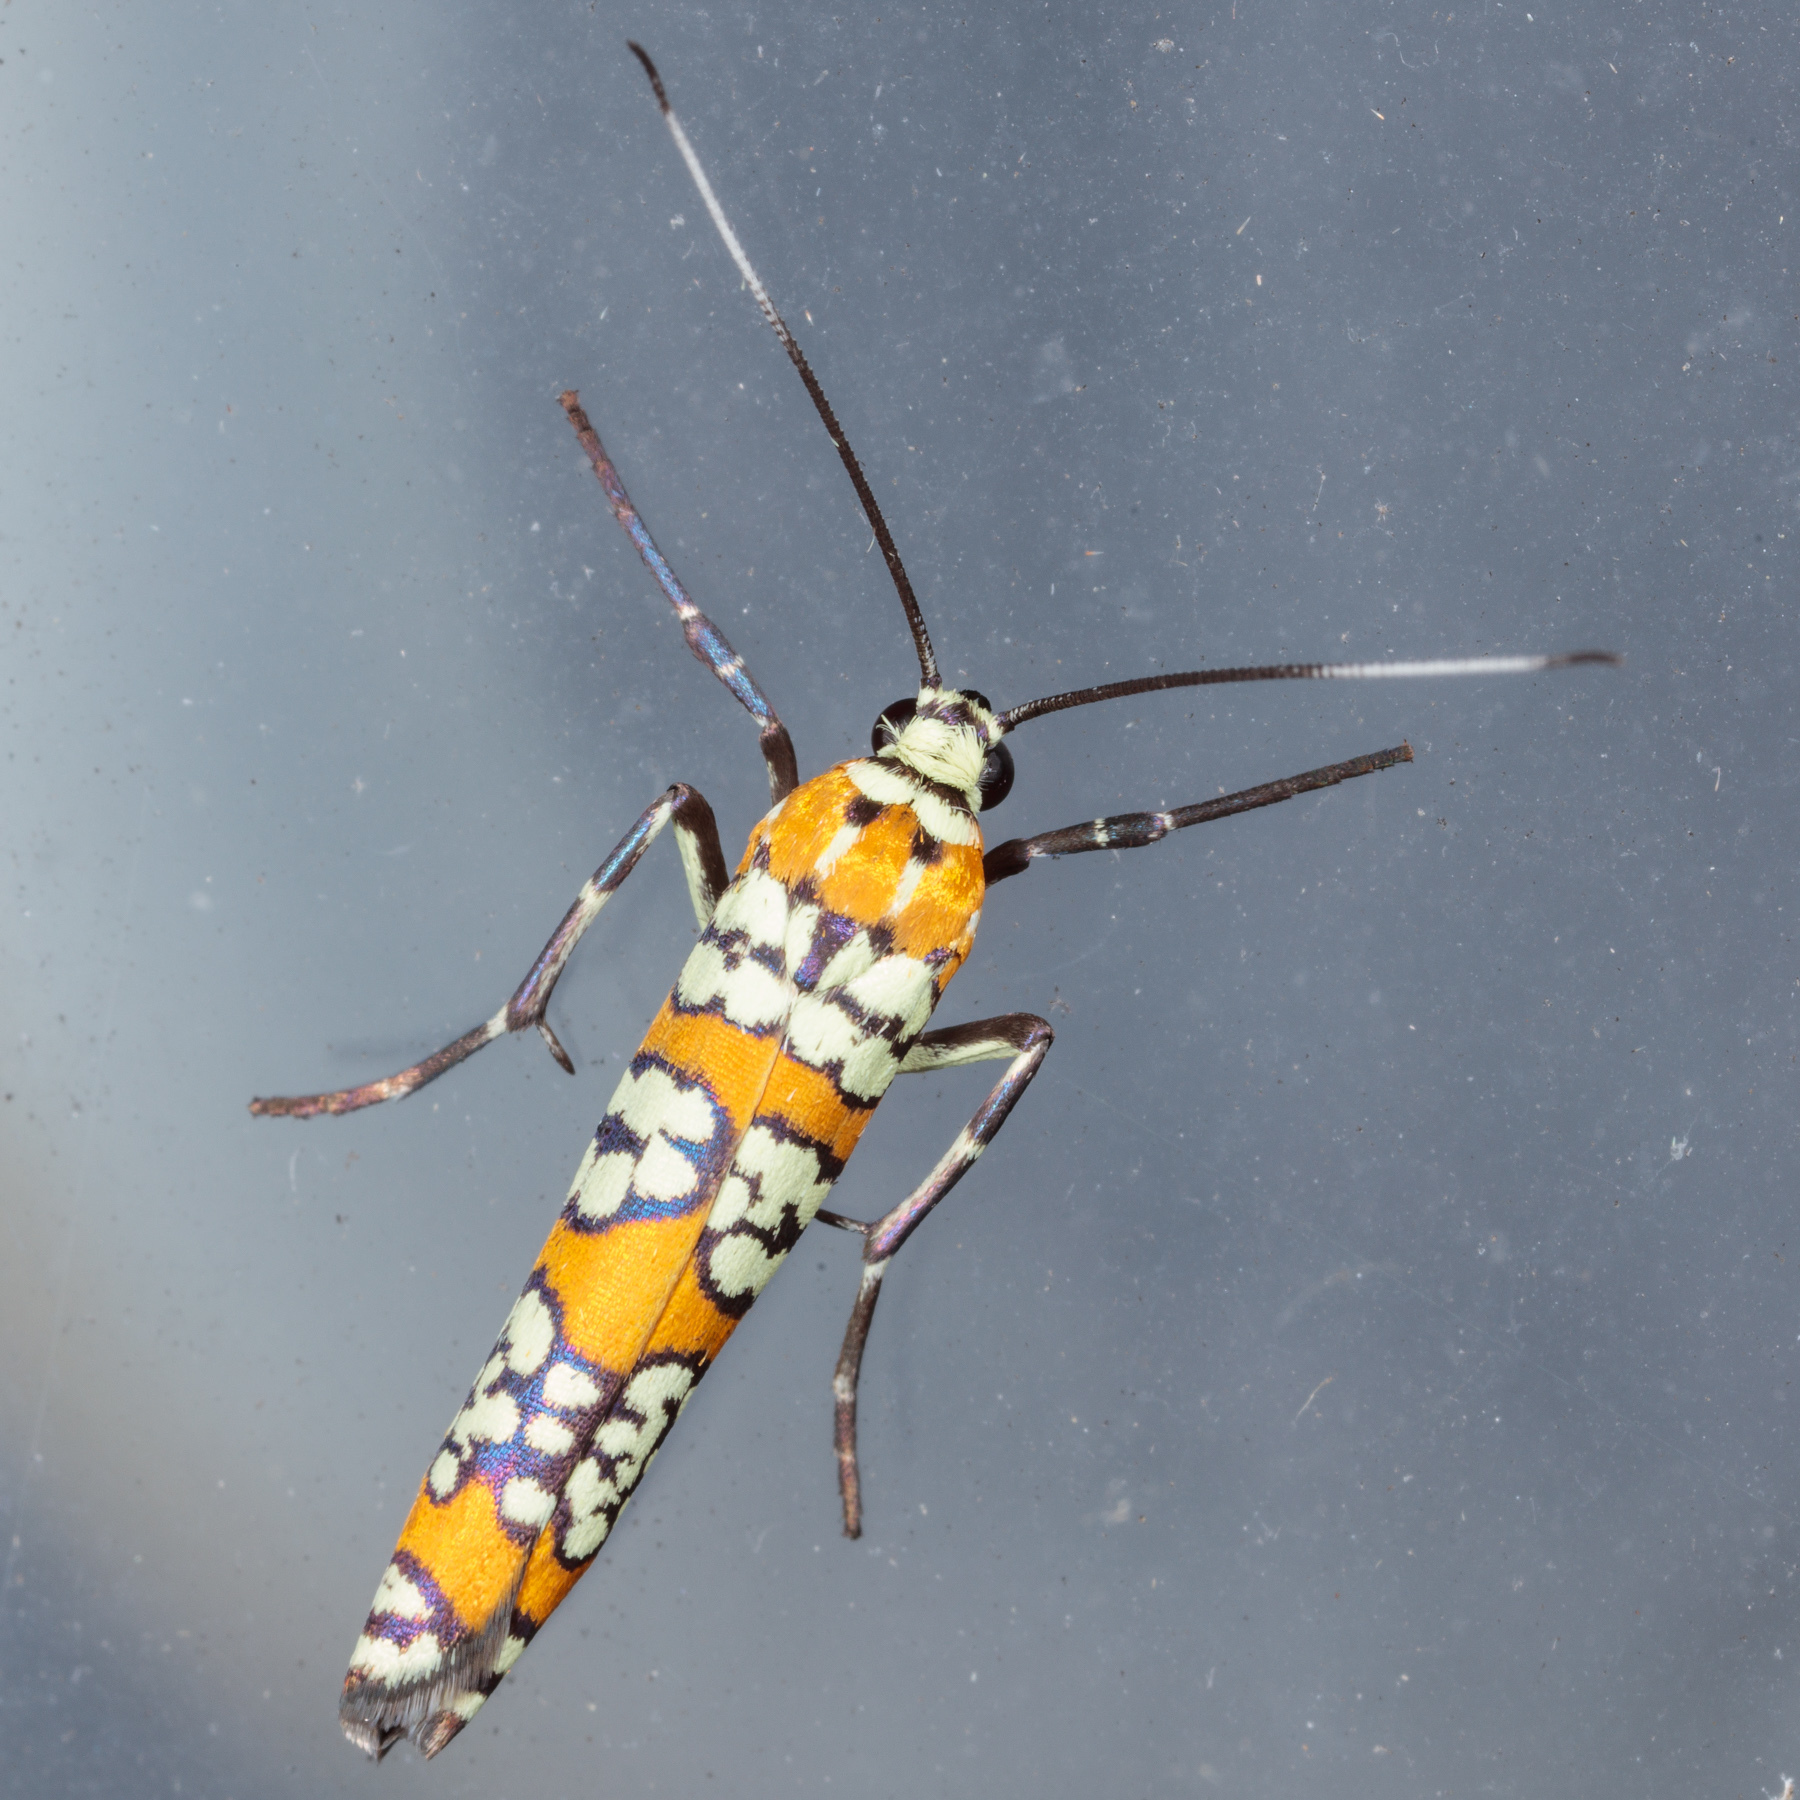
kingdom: Animalia
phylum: Arthropoda
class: Insecta
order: Lepidoptera
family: Attevidae
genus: Atteva
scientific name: Atteva punctella
